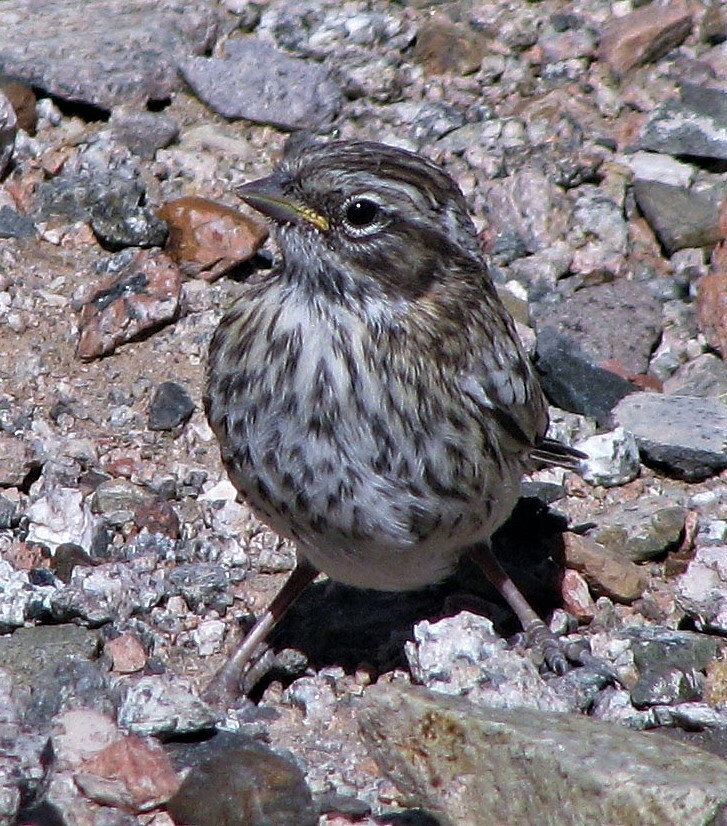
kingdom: Animalia
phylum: Chordata
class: Aves
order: Passeriformes
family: Passerellidae
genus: Zonotrichia
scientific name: Zonotrichia capensis
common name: Rufous-collared sparrow
